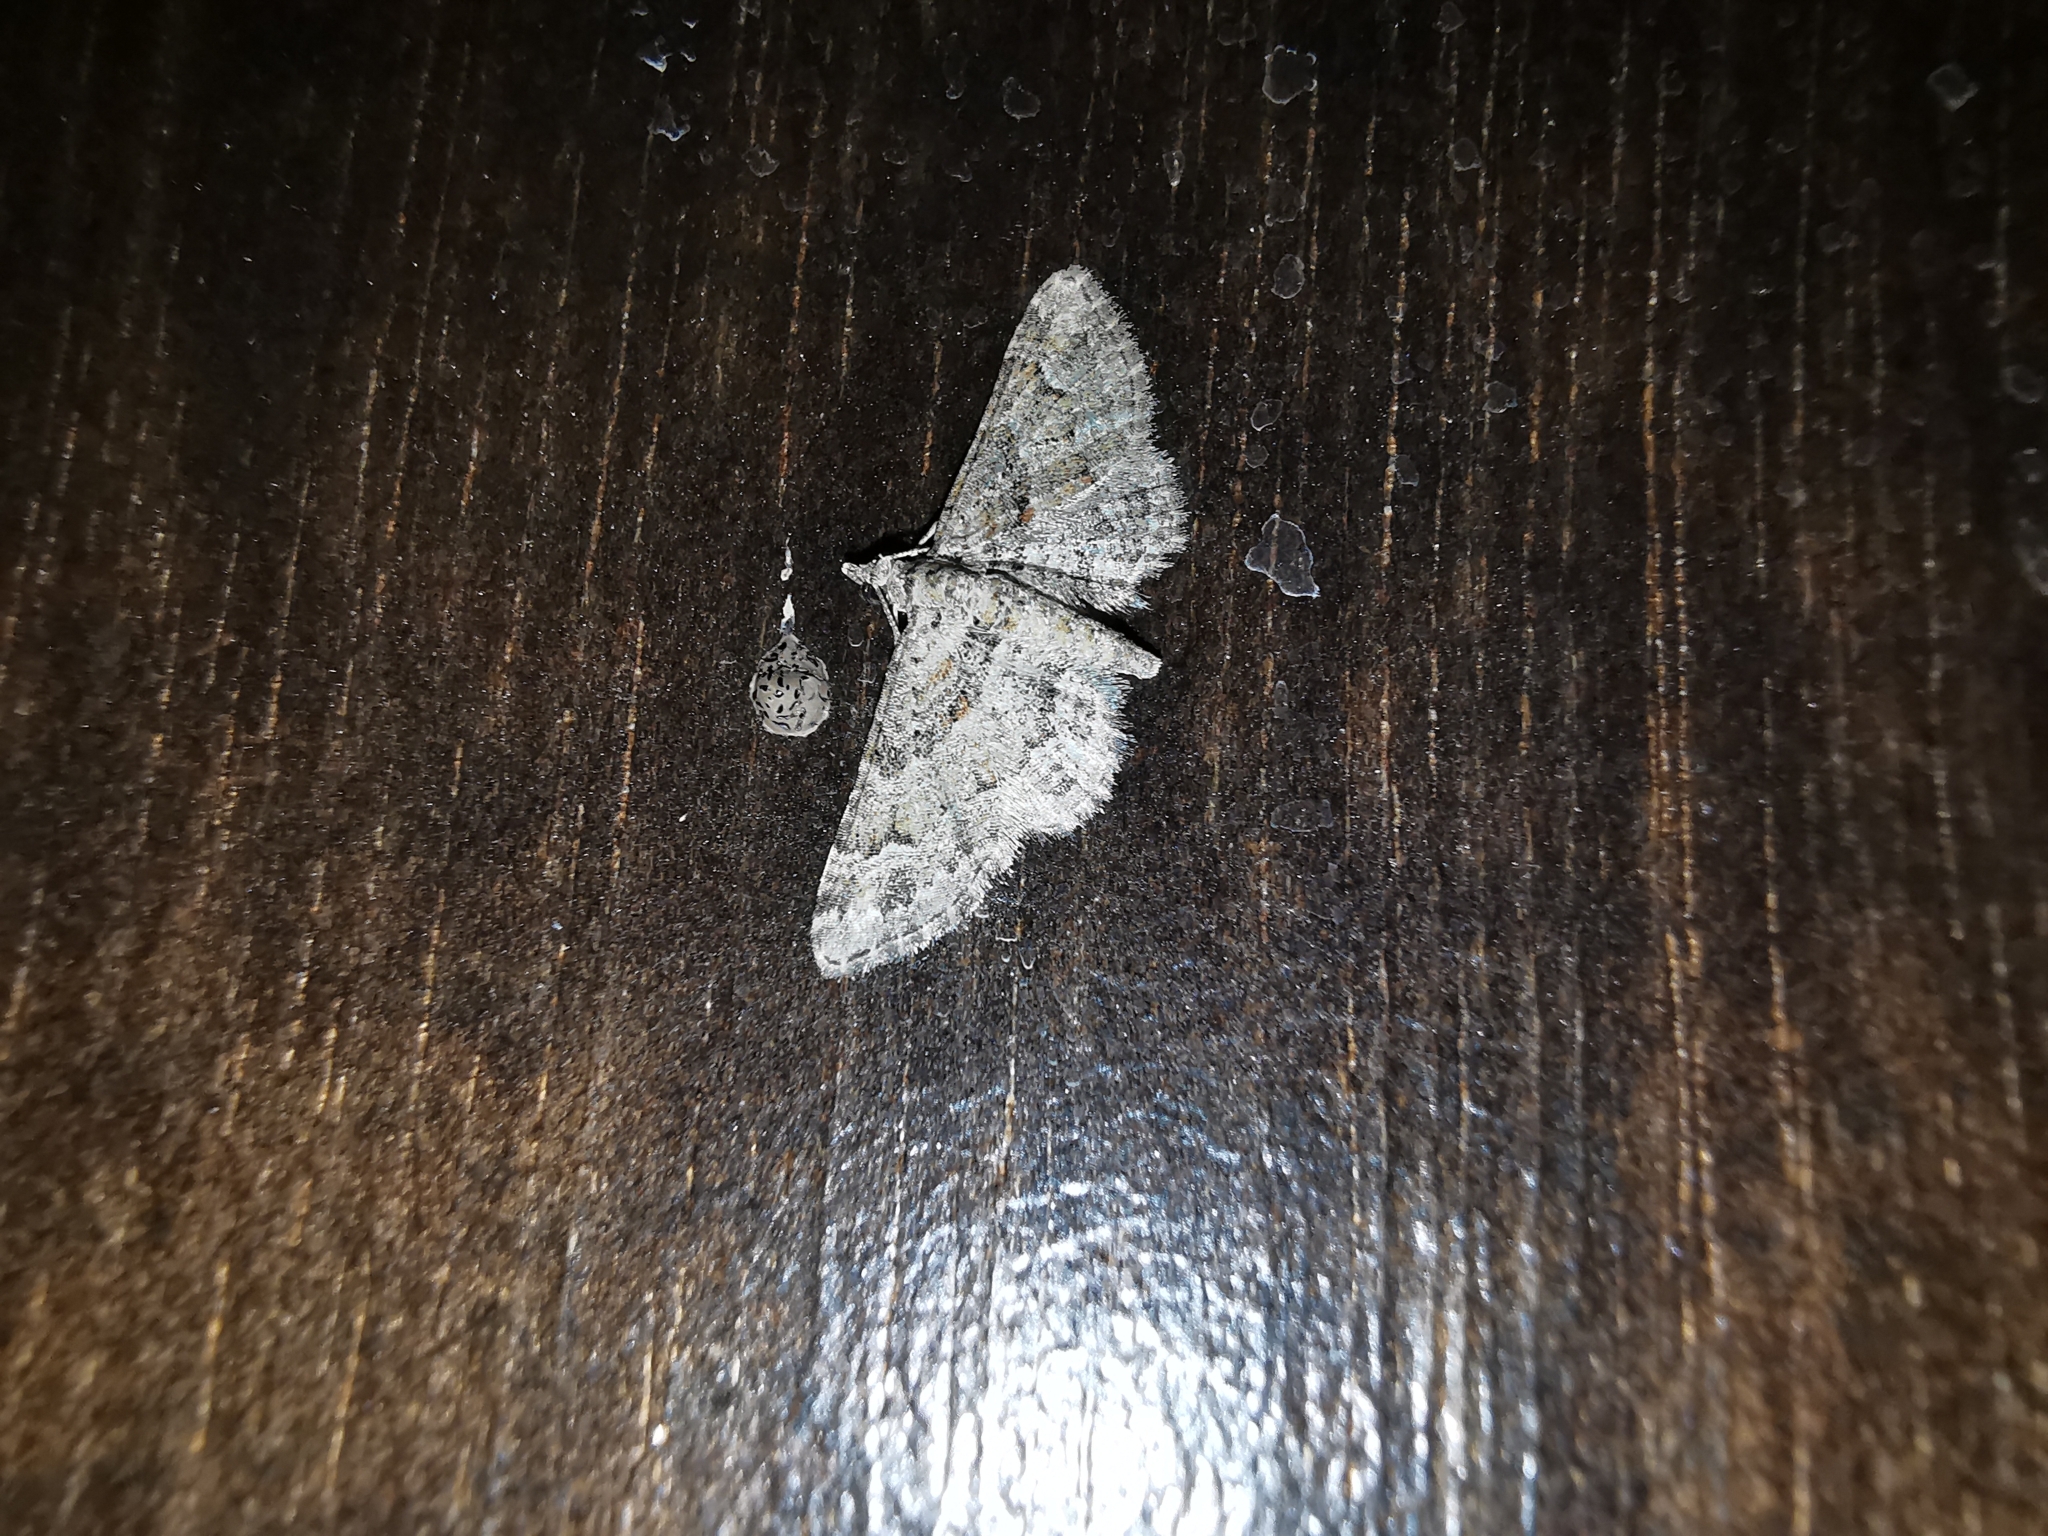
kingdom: Animalia
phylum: Arthropoda
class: Insecta
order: Lepidoptera
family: Geometridae
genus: Gymnoscelis
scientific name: Gymnoscelis rufifasciata
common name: Double-striped pug
